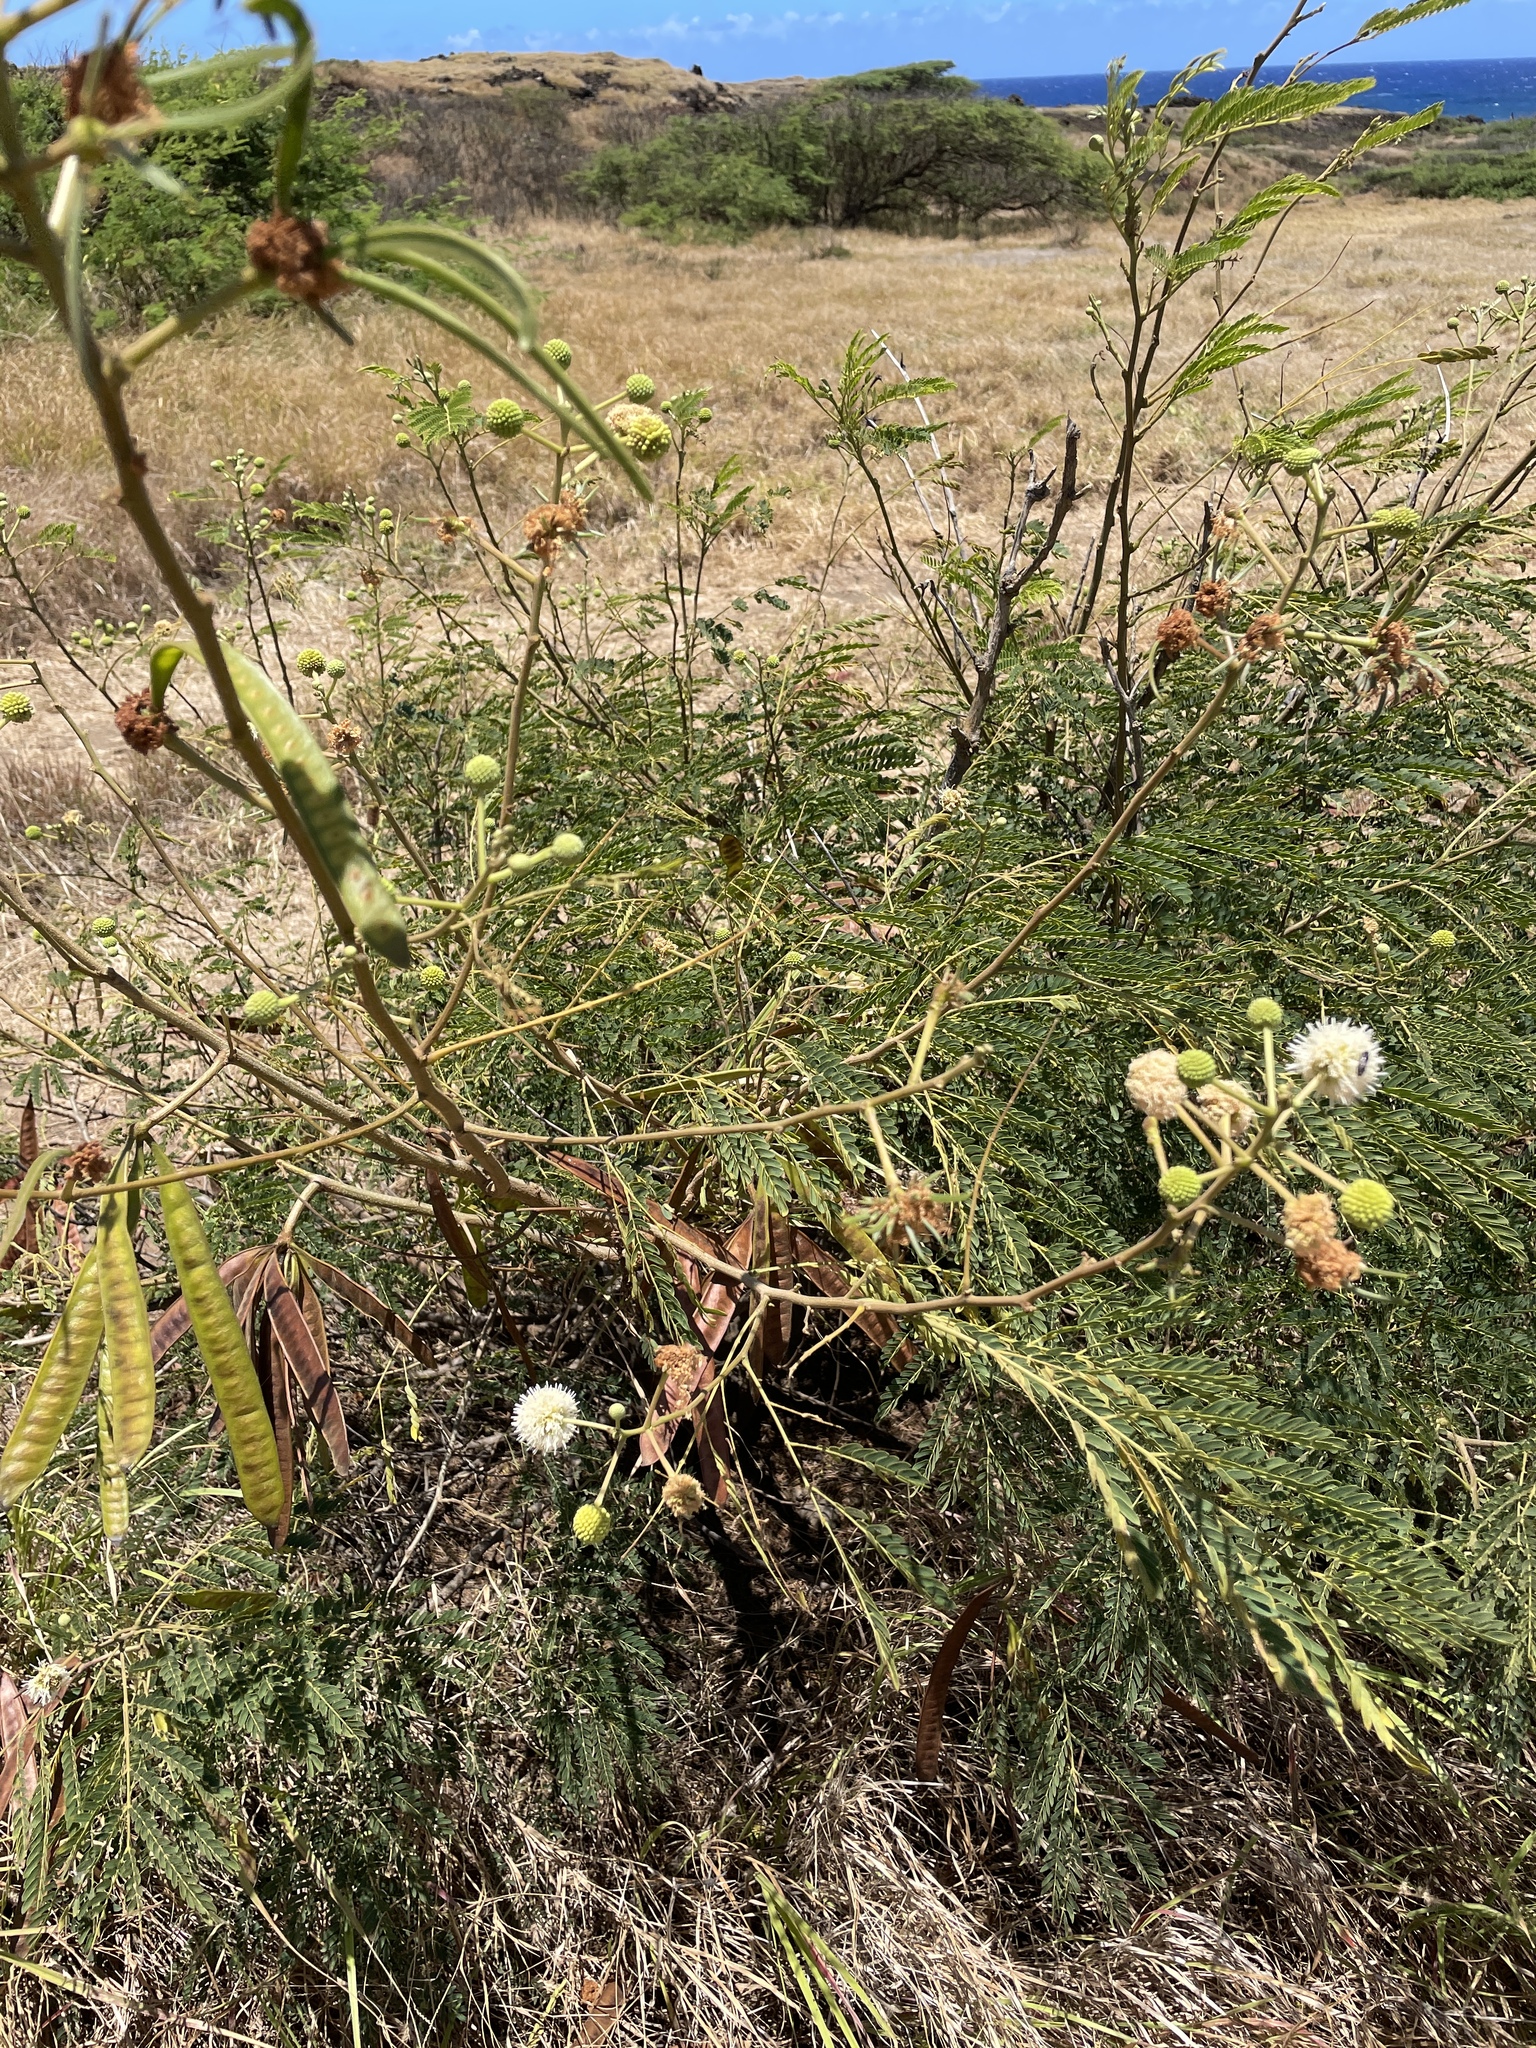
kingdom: Plantae
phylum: Tracheophyta
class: Magnoliopsida
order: Fabales
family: Fabaceae
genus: Leucaena
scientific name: Leucaena leucocephala
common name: White leadtree
